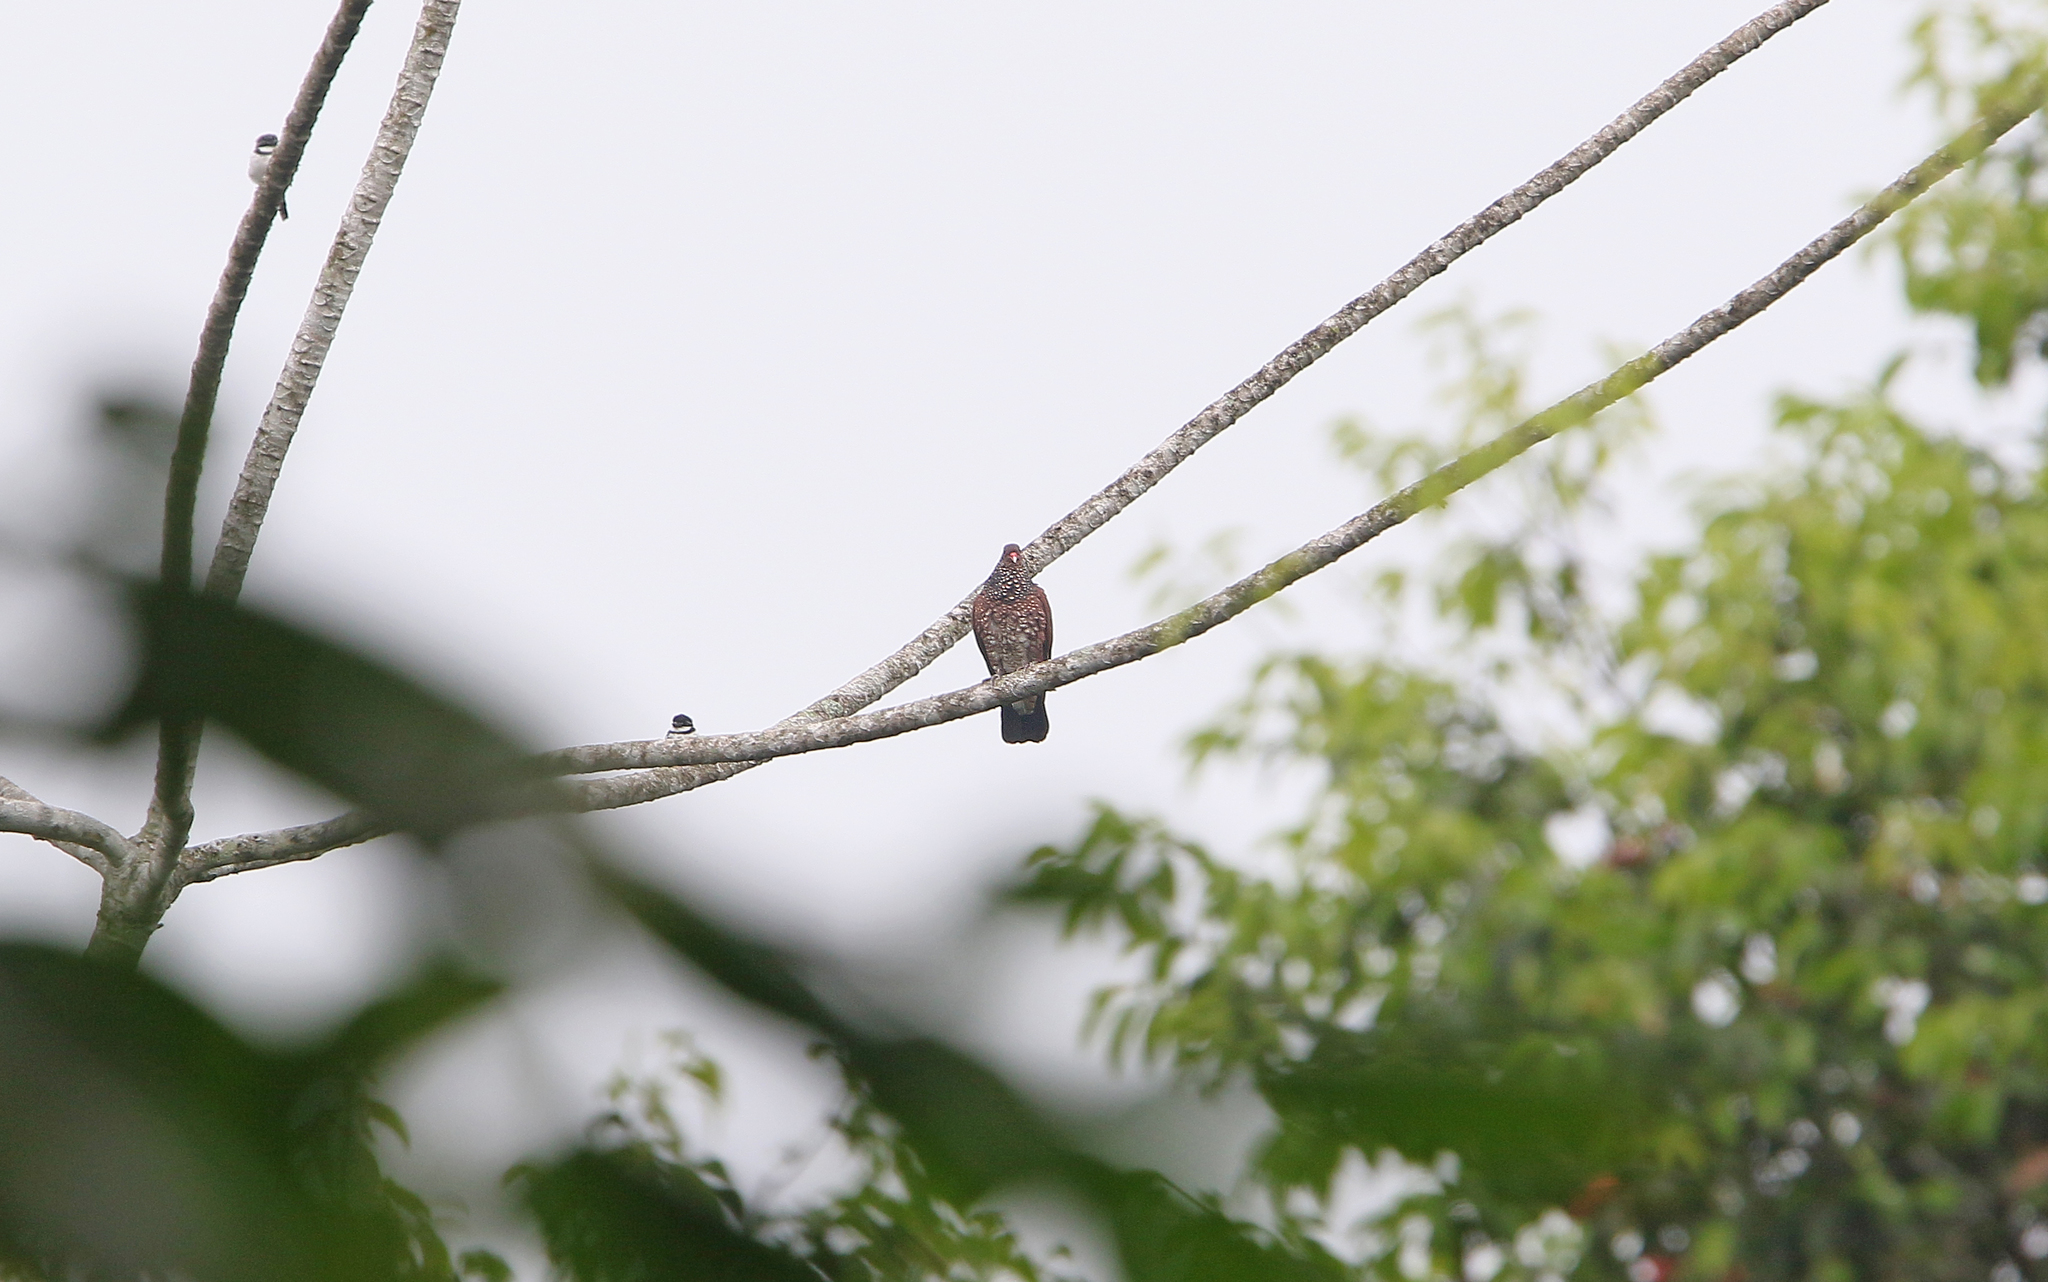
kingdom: Animalia
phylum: Chordata
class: Aves
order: Columbiformes
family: Columbidae
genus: Patagioenas
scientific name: Patagioenas speciosa
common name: Scaled pigeon
